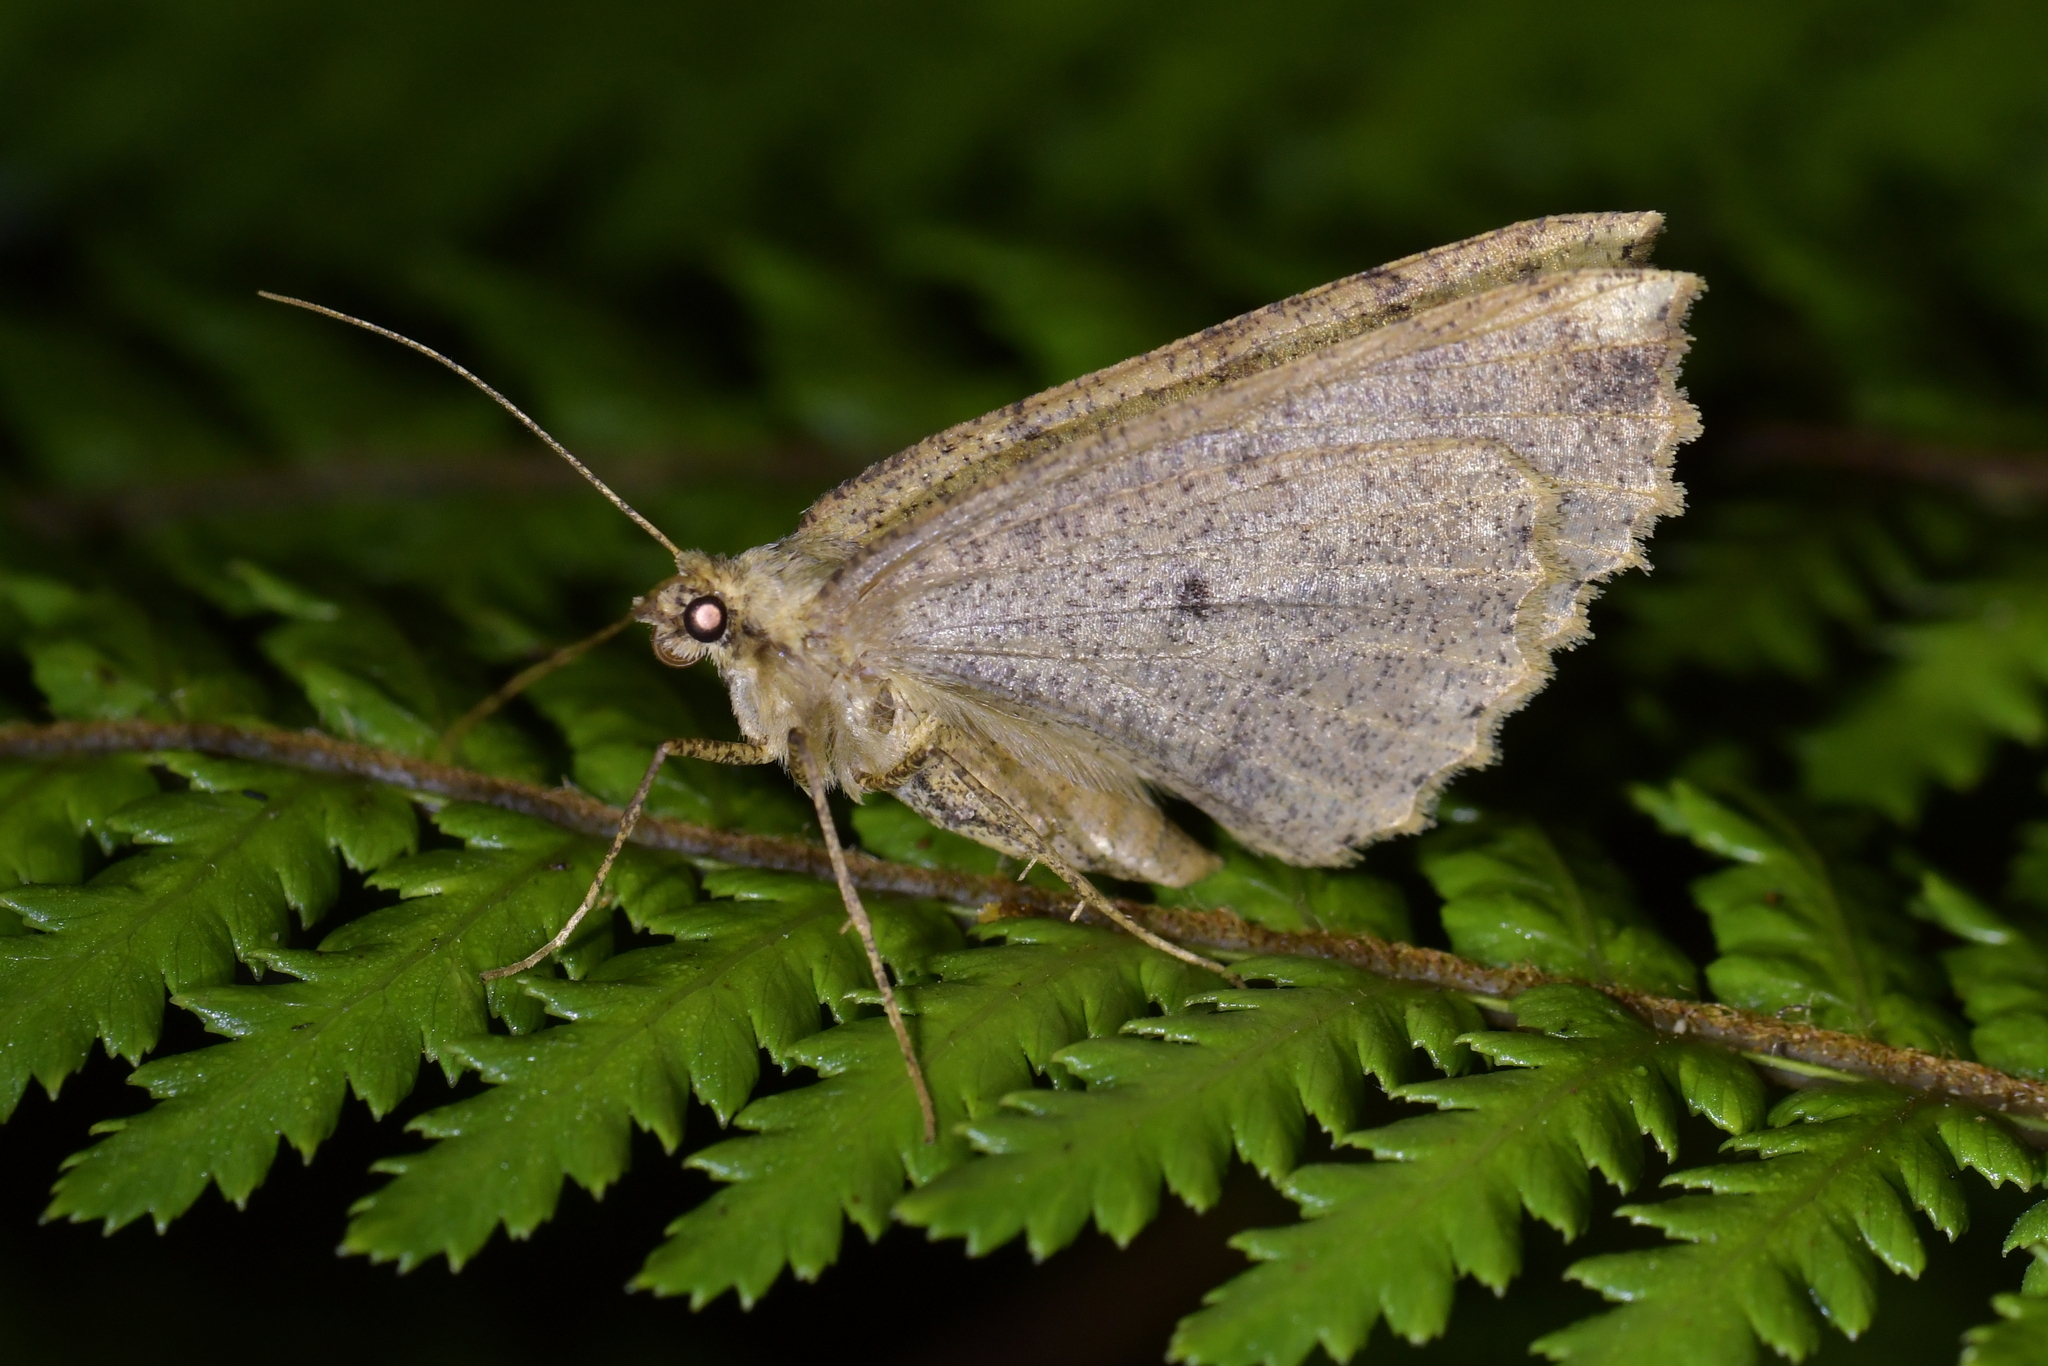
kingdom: Animalia
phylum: Arthropoda
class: Insecta
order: Lepidoptera
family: Geometridae
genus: Cleora
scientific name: Cleora scriptaria
